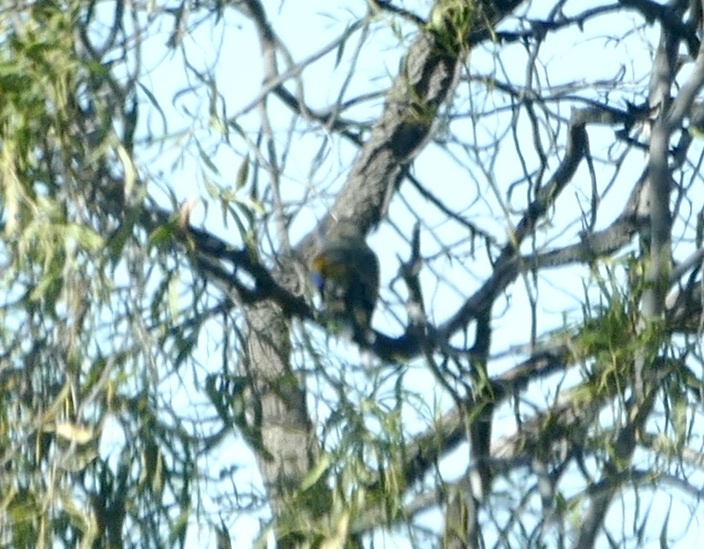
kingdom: Animalia
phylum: Chordata
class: Aves
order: Psittaciformes
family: Psittacidae
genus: Northiella
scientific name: Northiella haematogaster
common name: Bluebonnet
